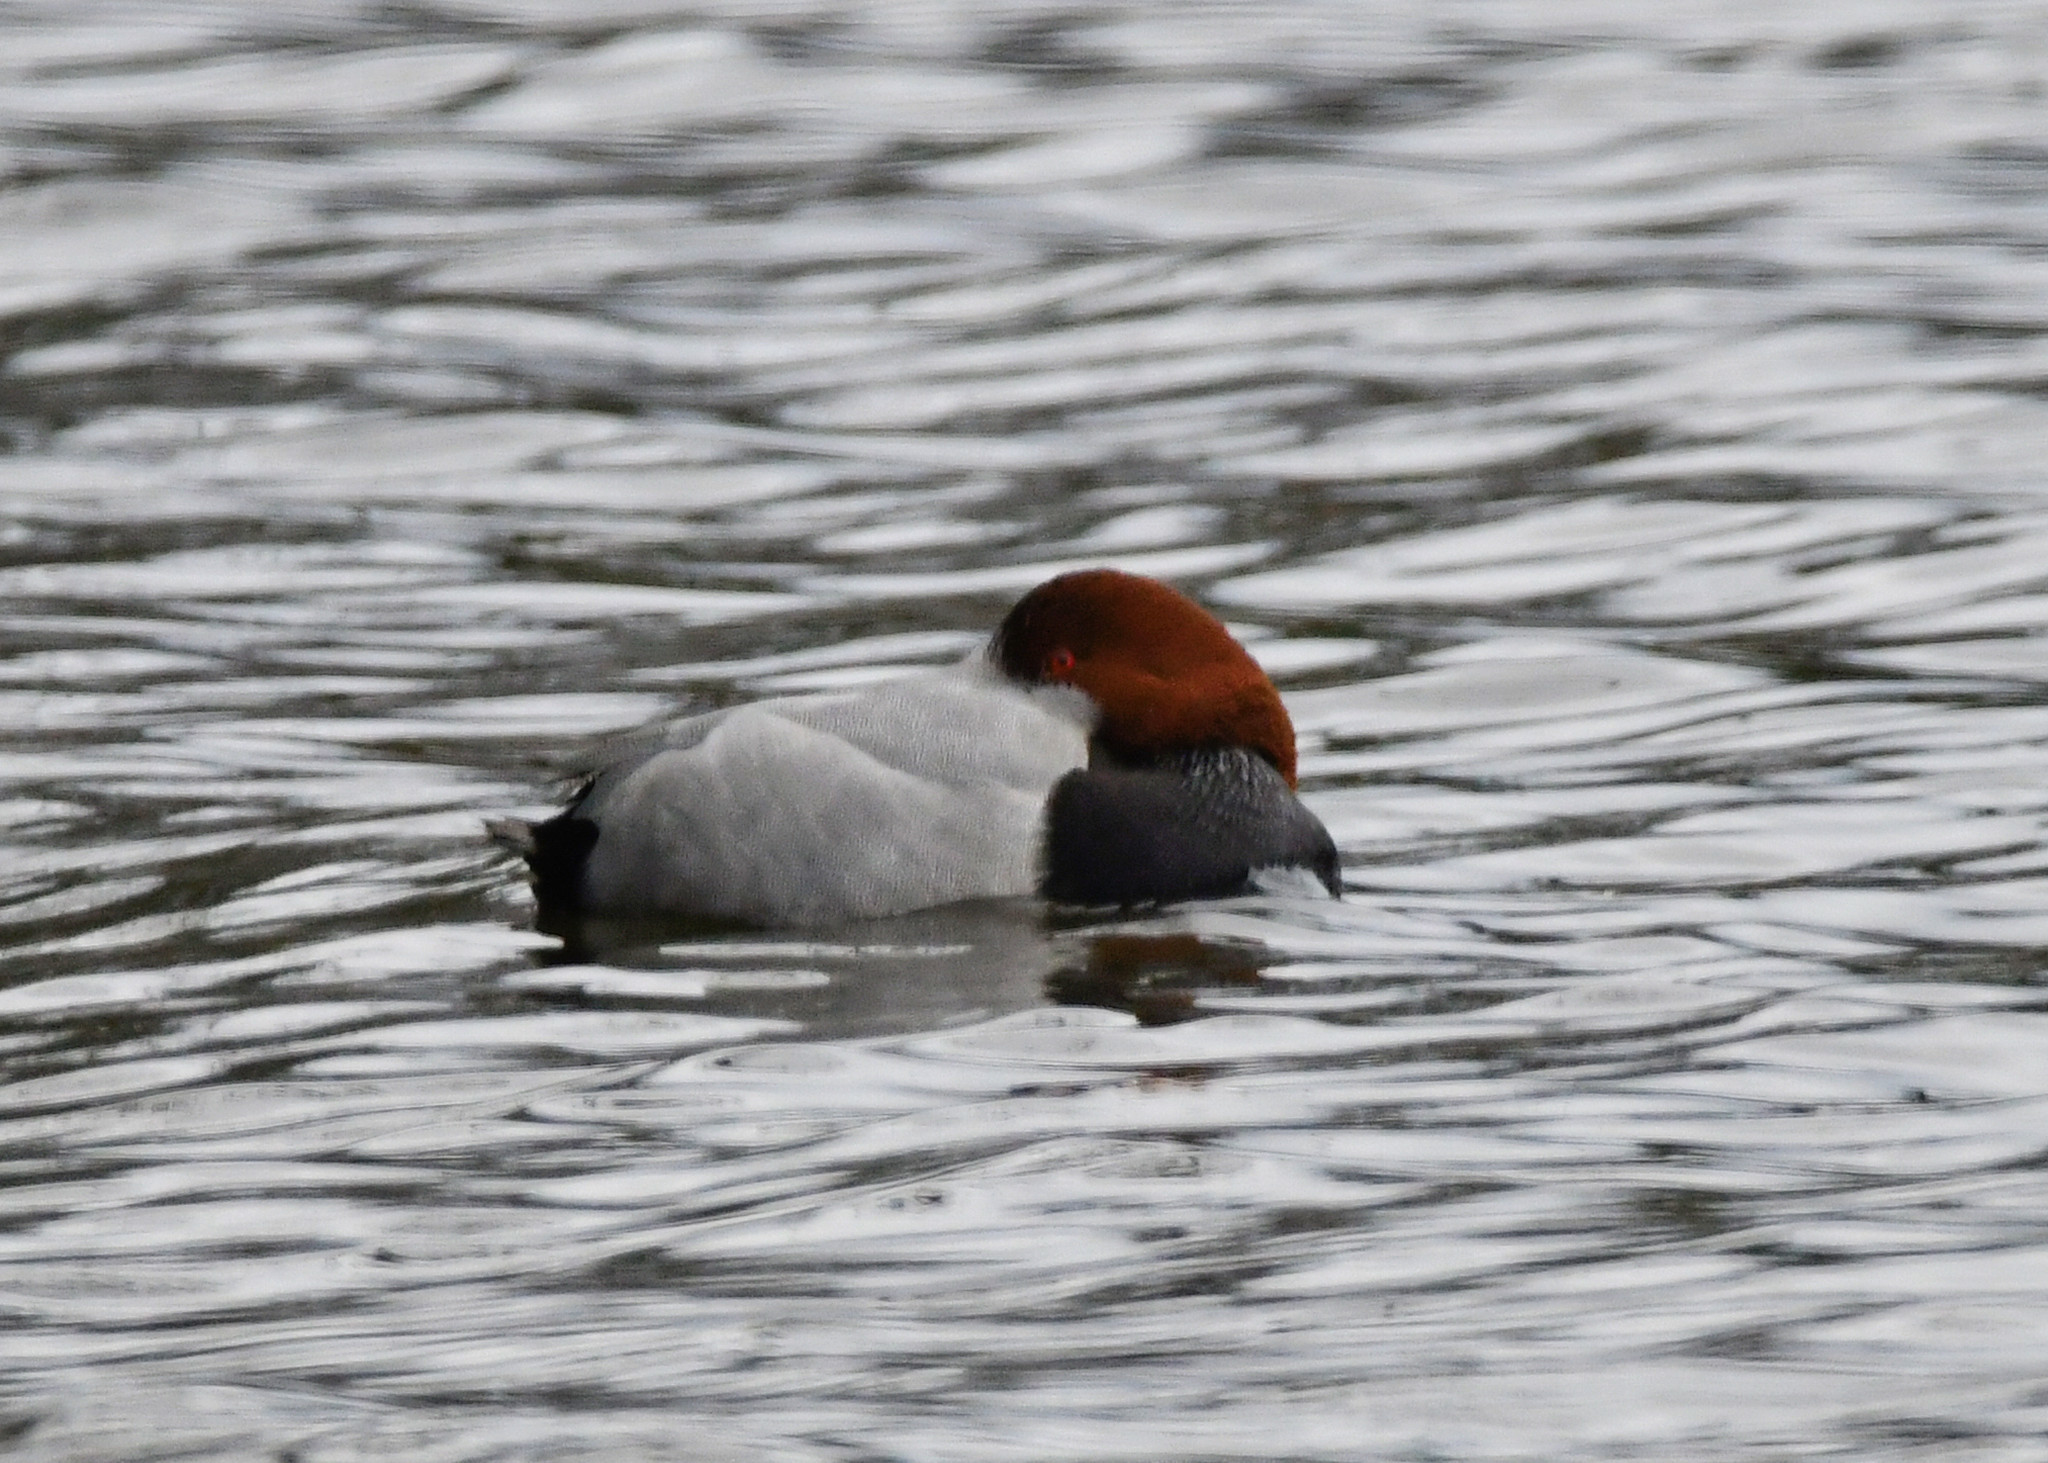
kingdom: Animalia
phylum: Chordata
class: Aves
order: Anseriformes
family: Anatidae
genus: Aythya
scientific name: Aythya ferina
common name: Common pochard
